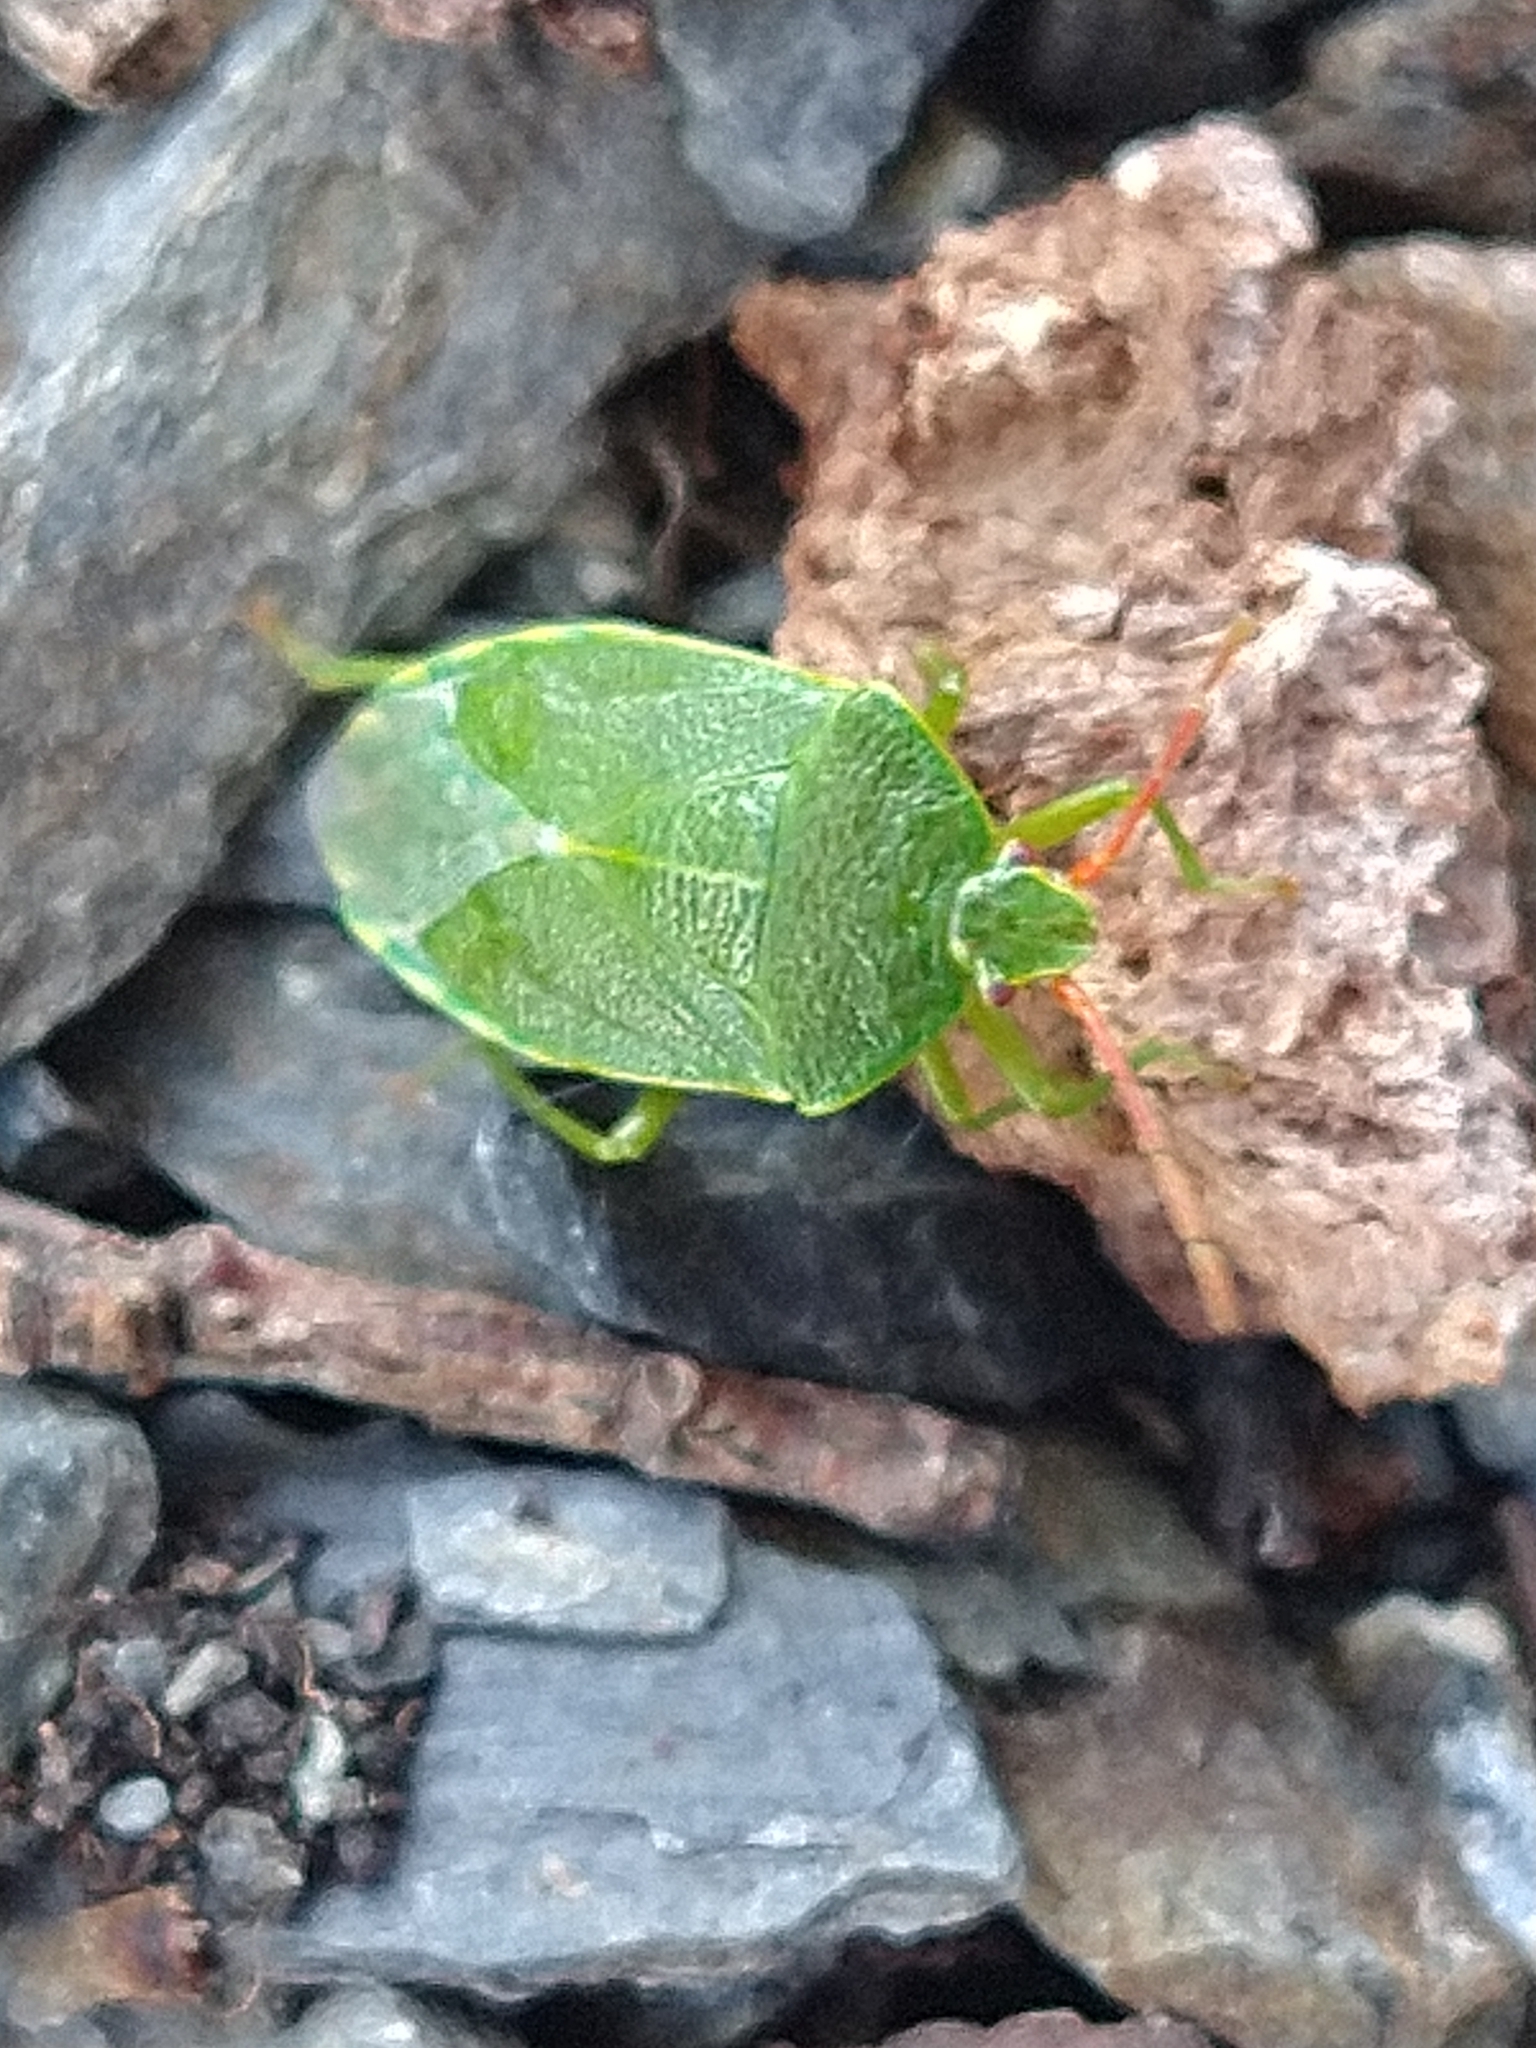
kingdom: Animalia
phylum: Arthropoda
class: Insecta
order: Hemiptera
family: Acanthosomatidae
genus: Sinopla
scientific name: Sinopla perpunctatus
